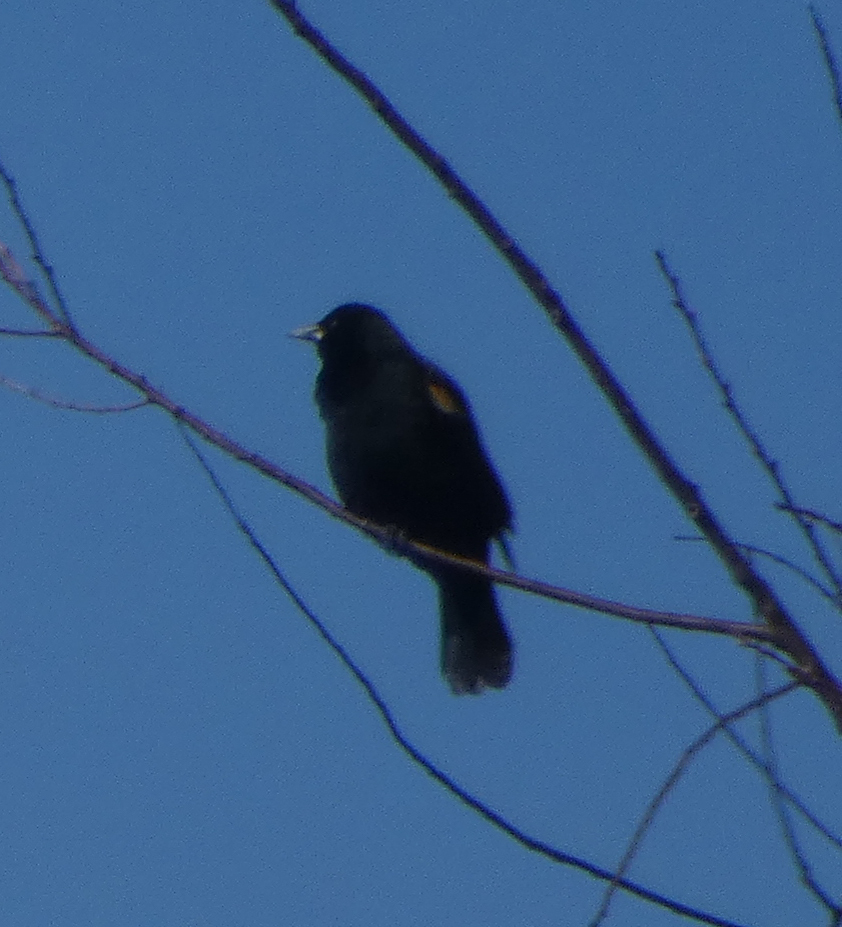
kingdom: Animalia
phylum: Chordata
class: Aves
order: Passeriformes
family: Icteridae
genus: Agelaius
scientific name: Agelaius phoeniceus
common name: Red-winged blackbird
